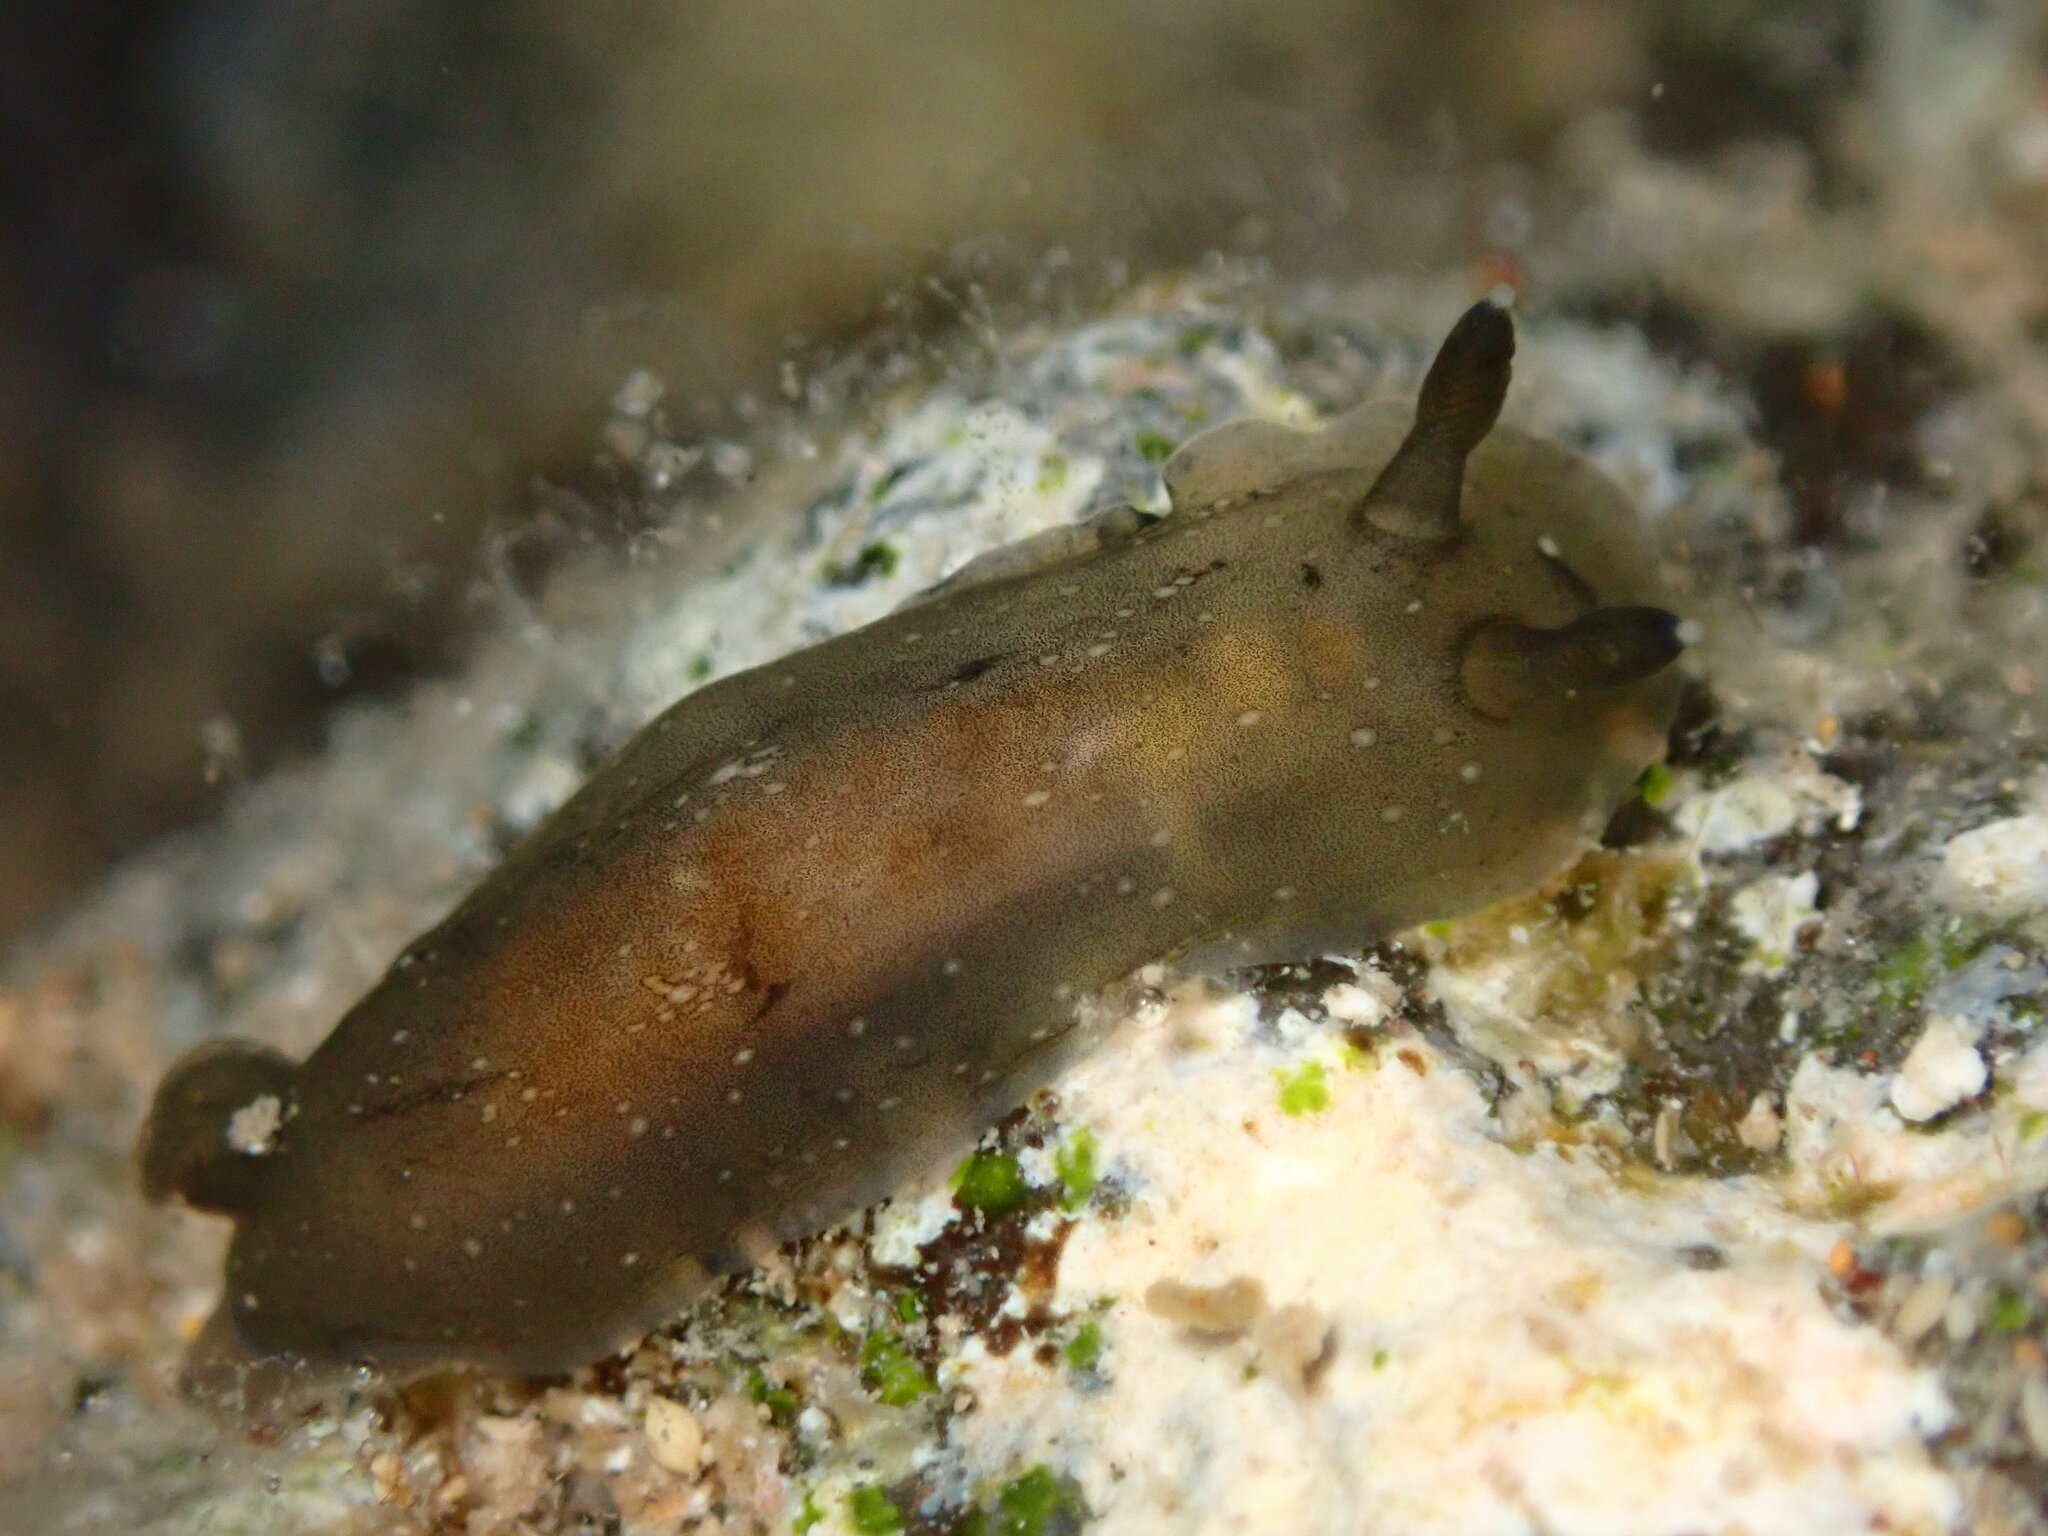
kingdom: Animalia
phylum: Mollusca
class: Gastropoda
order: Nudibranchia
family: Dendrodorididae
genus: Dendrodoris
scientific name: Dendrodoris nigra
